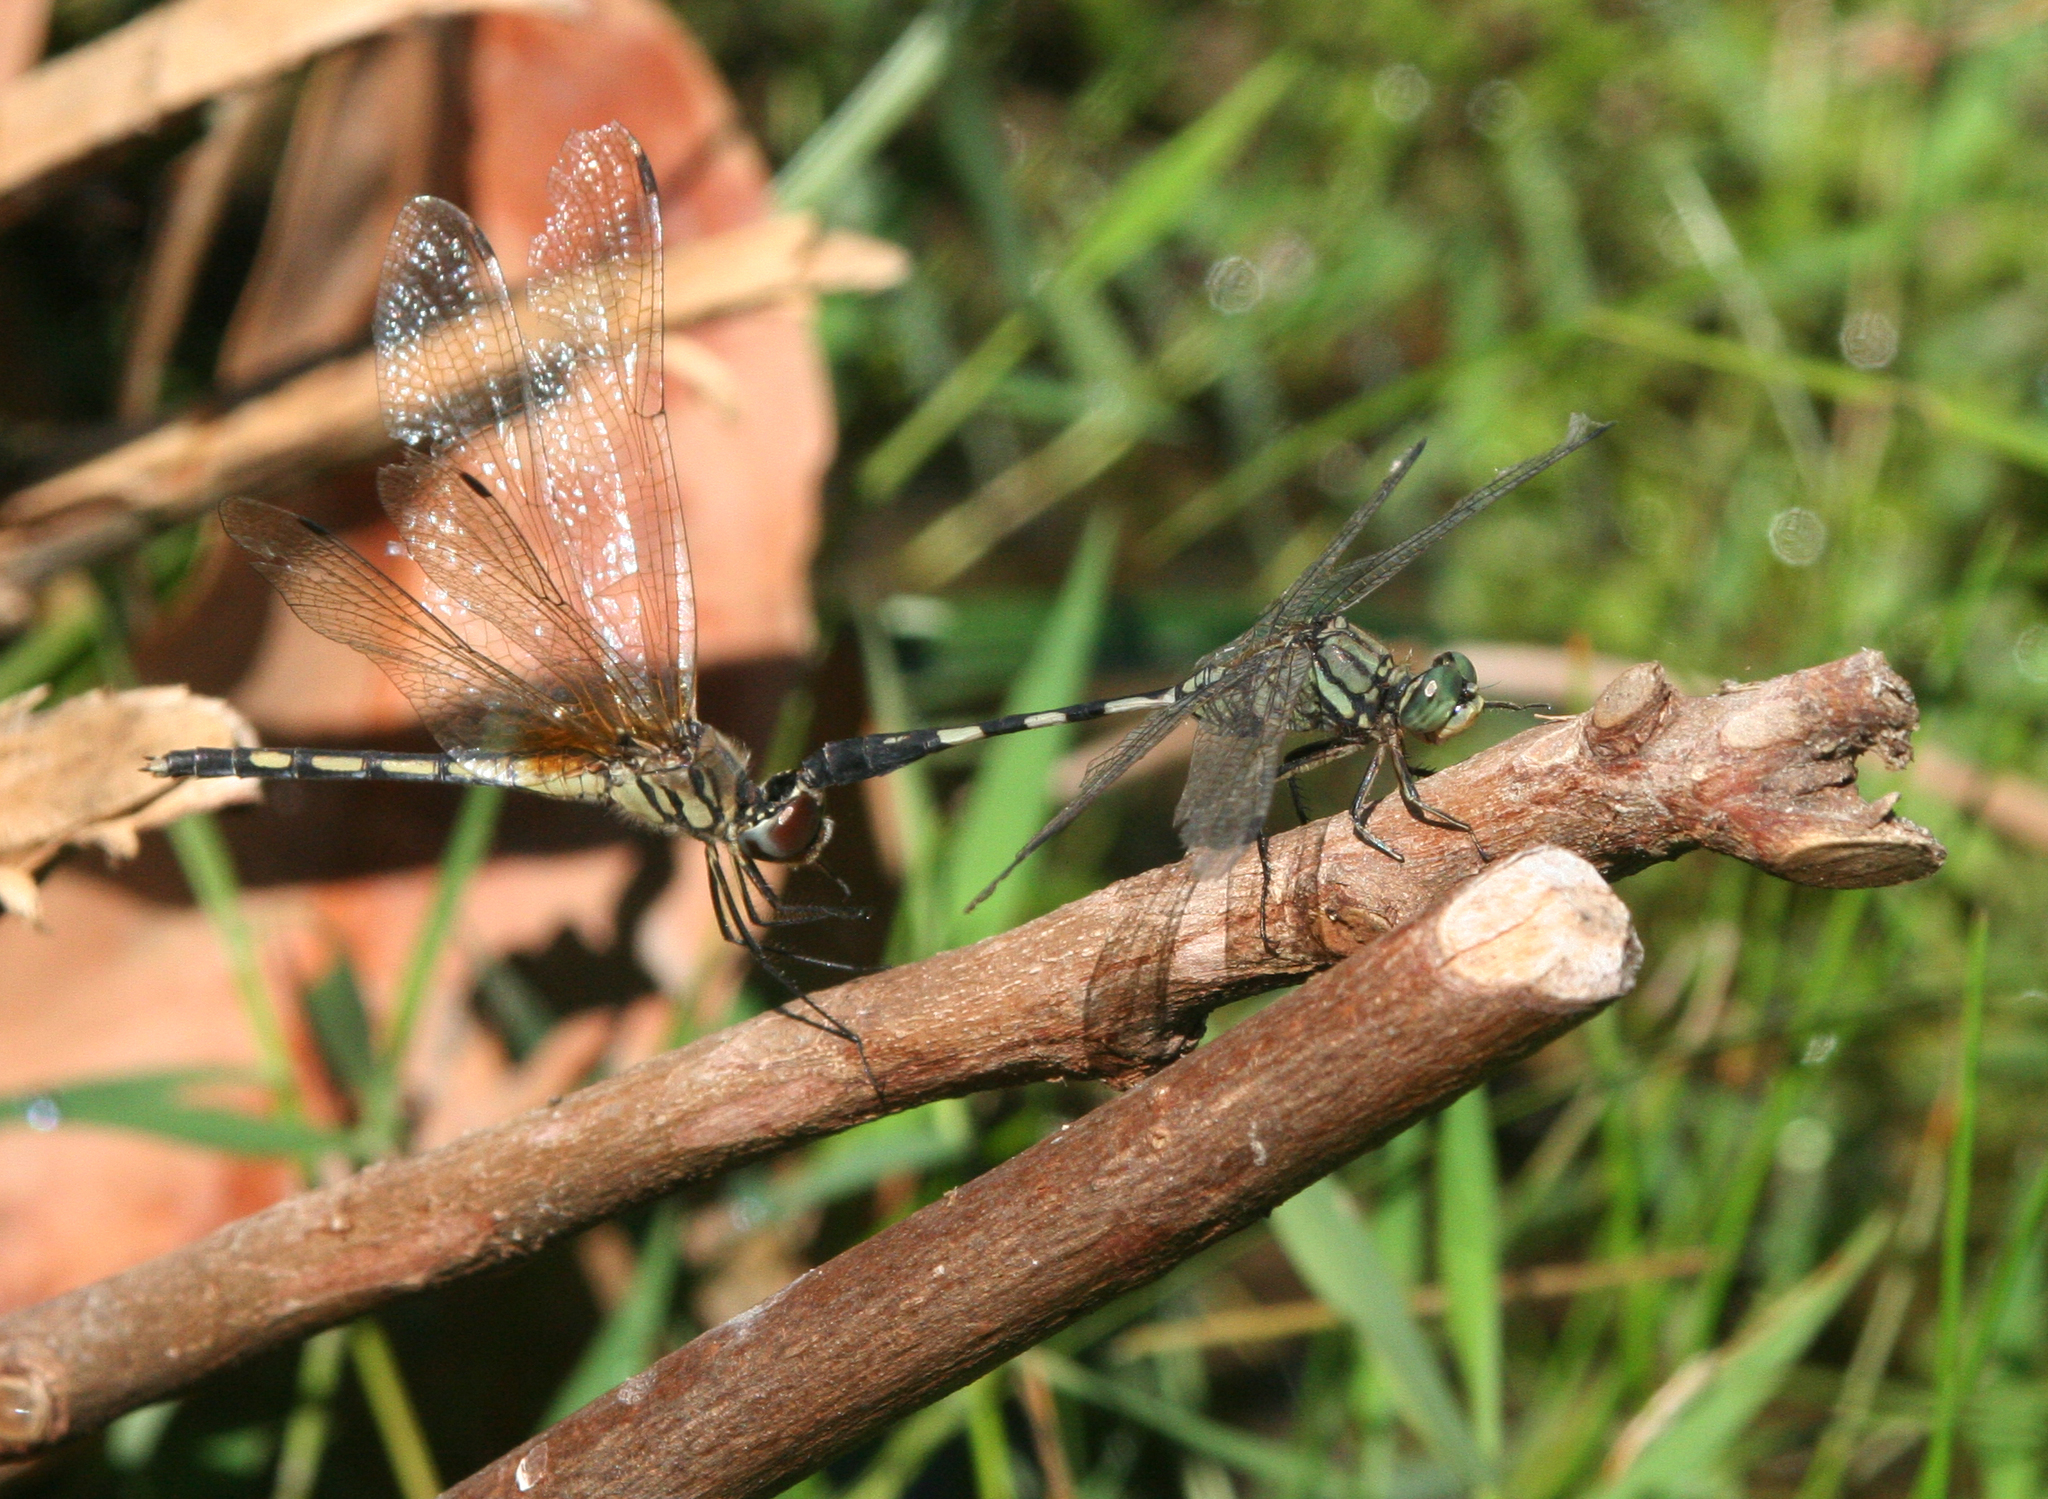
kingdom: Animalia
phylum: Arthropoda
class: Insecta
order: Odonata
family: Libellulidae
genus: Orthetrum
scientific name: Orthetrum sabina
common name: Slender skimmer
